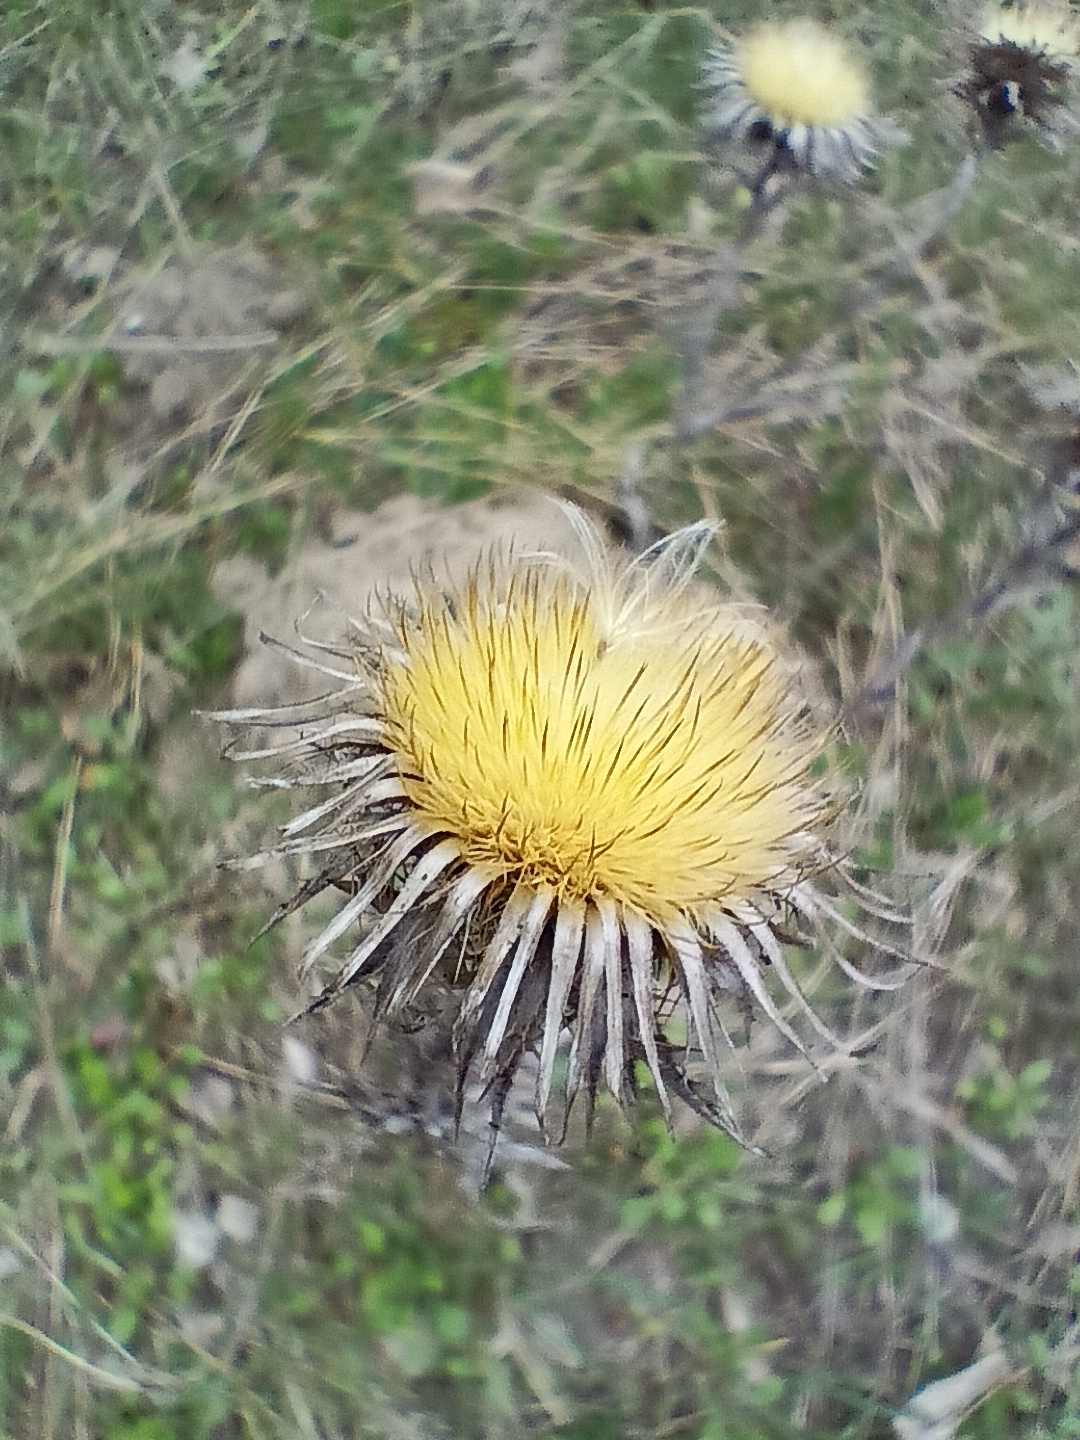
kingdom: Plantae
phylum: Tracheophyta
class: Magnoliopsida
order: Asterales
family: Asteraceae
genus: Carlina
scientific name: Carlina biebersteinii
